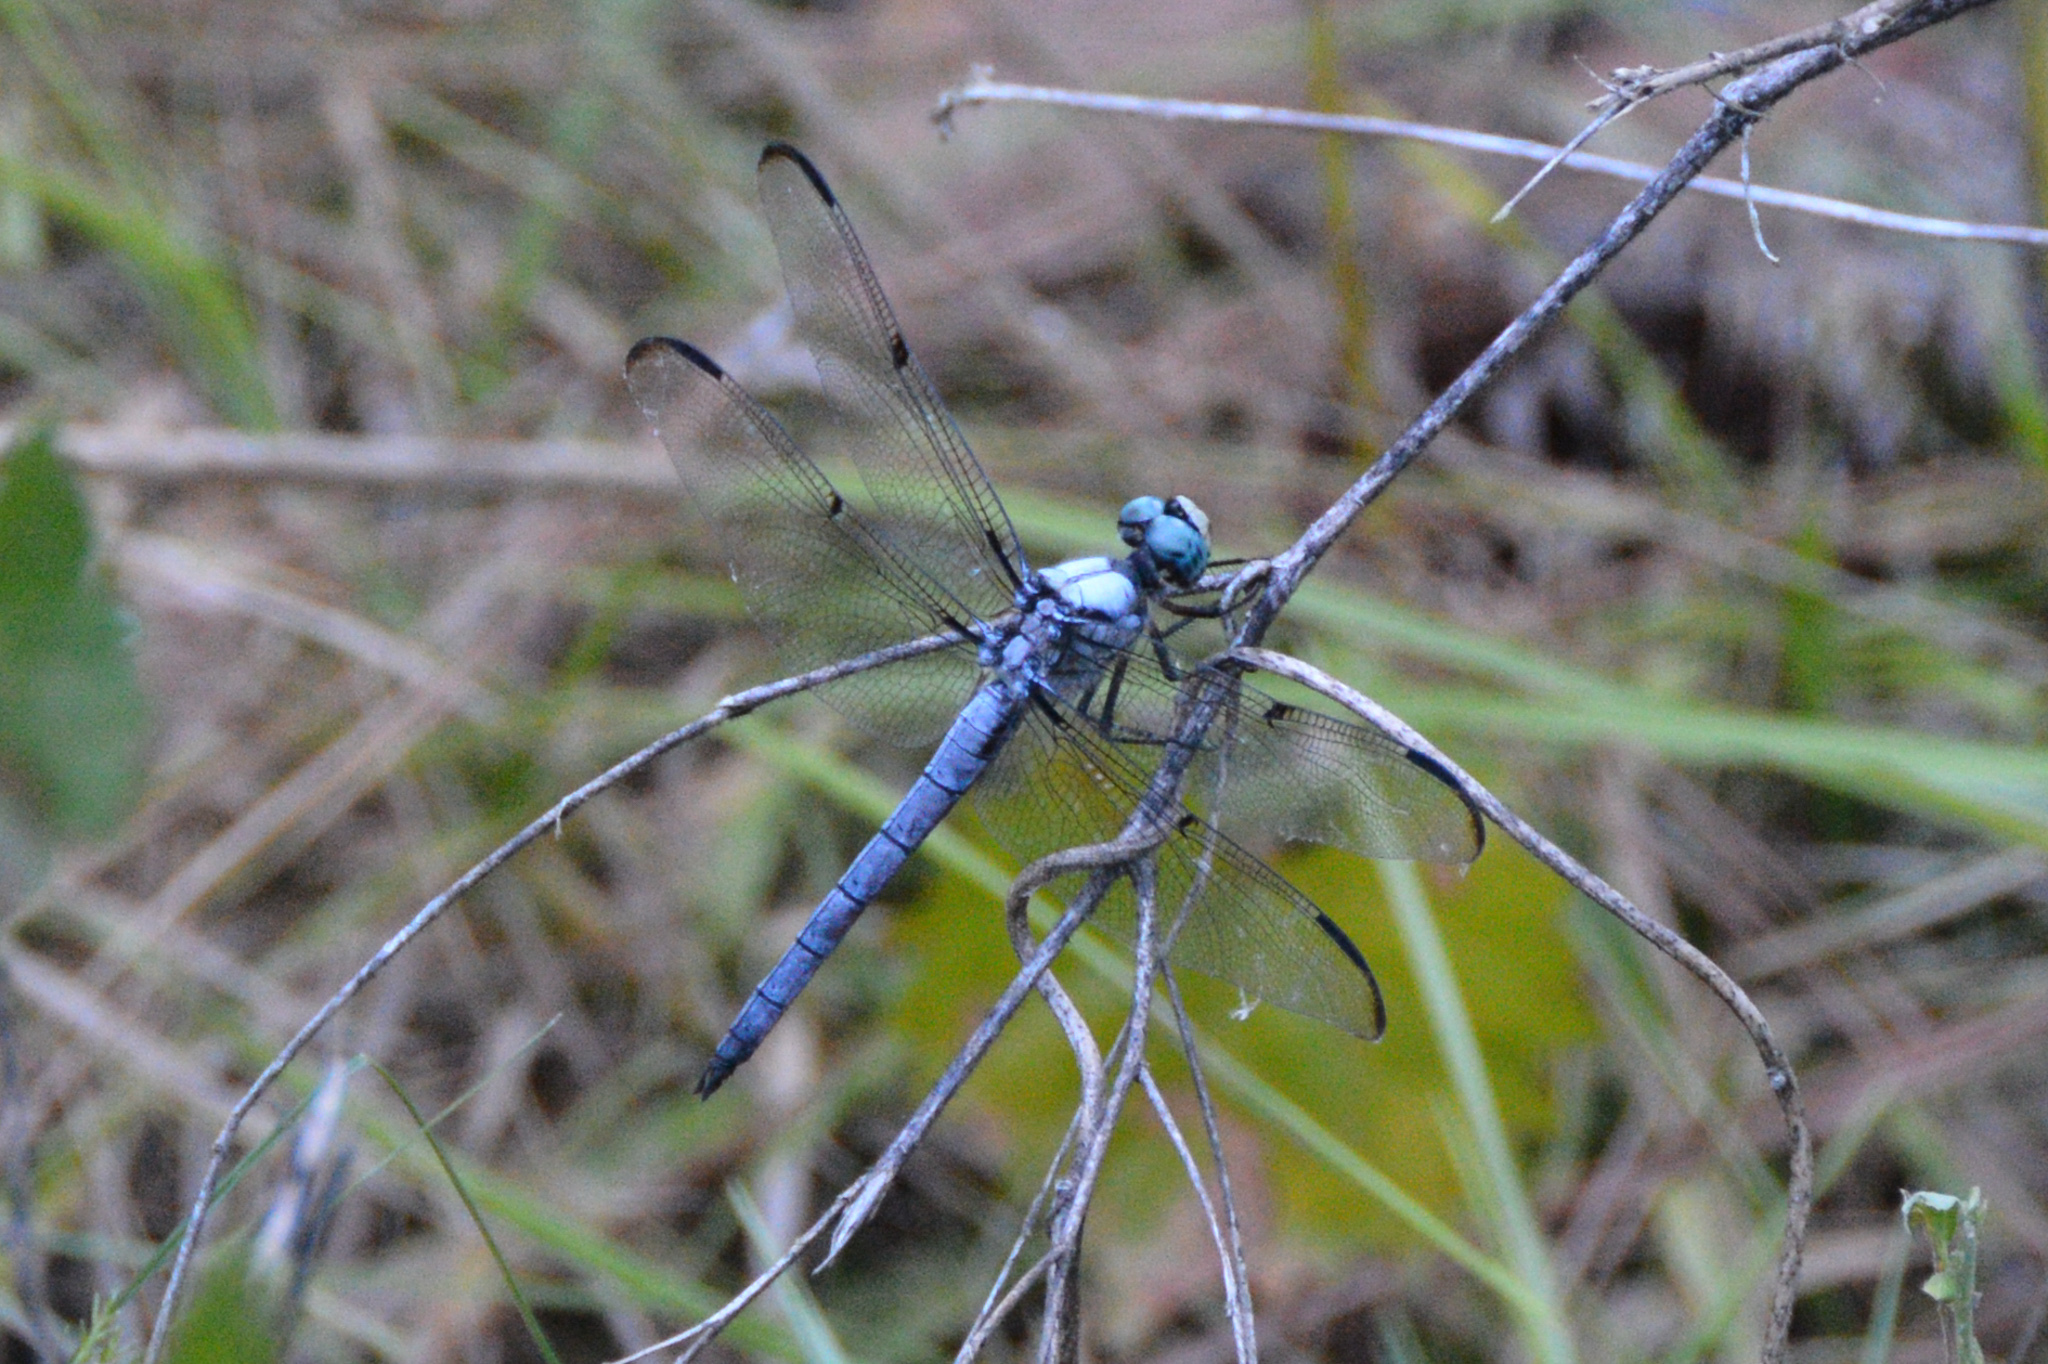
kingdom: Animalia
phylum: Arthropoda
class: Insecta
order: Odonata
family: Libellulidae
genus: Libellula
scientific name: Libellula vibrans
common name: Great blue skimmer
